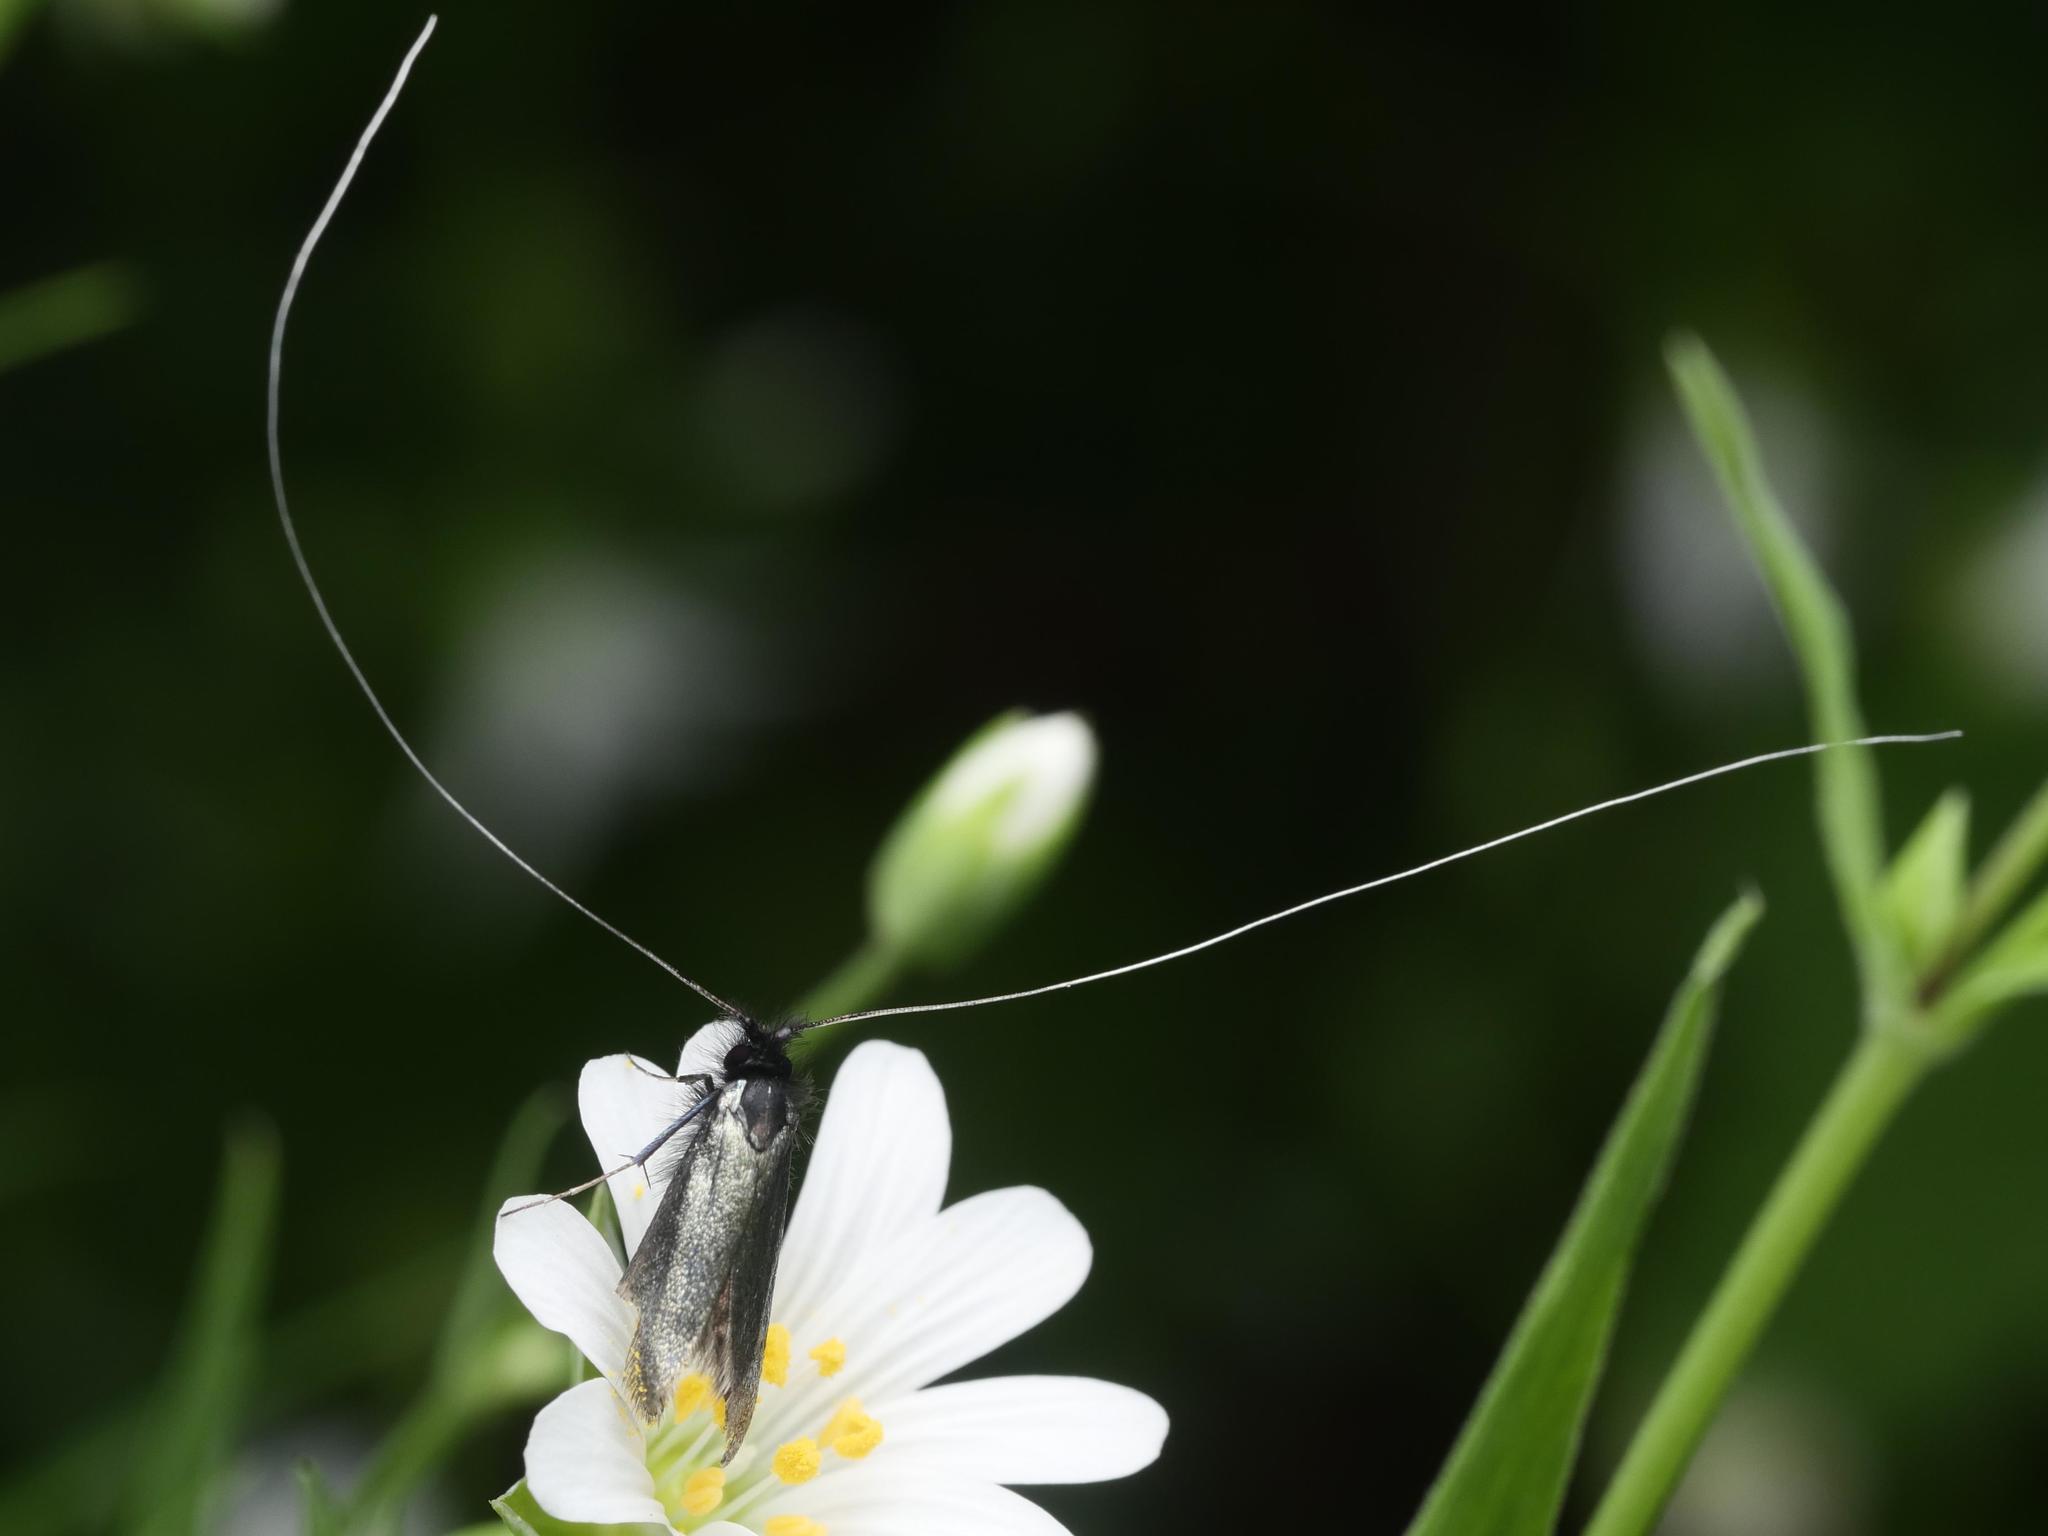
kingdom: Animalia
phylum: Arthropoda
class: Insecta
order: Lepidoptera
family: Adelidae
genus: Adela
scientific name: Adela viridella
